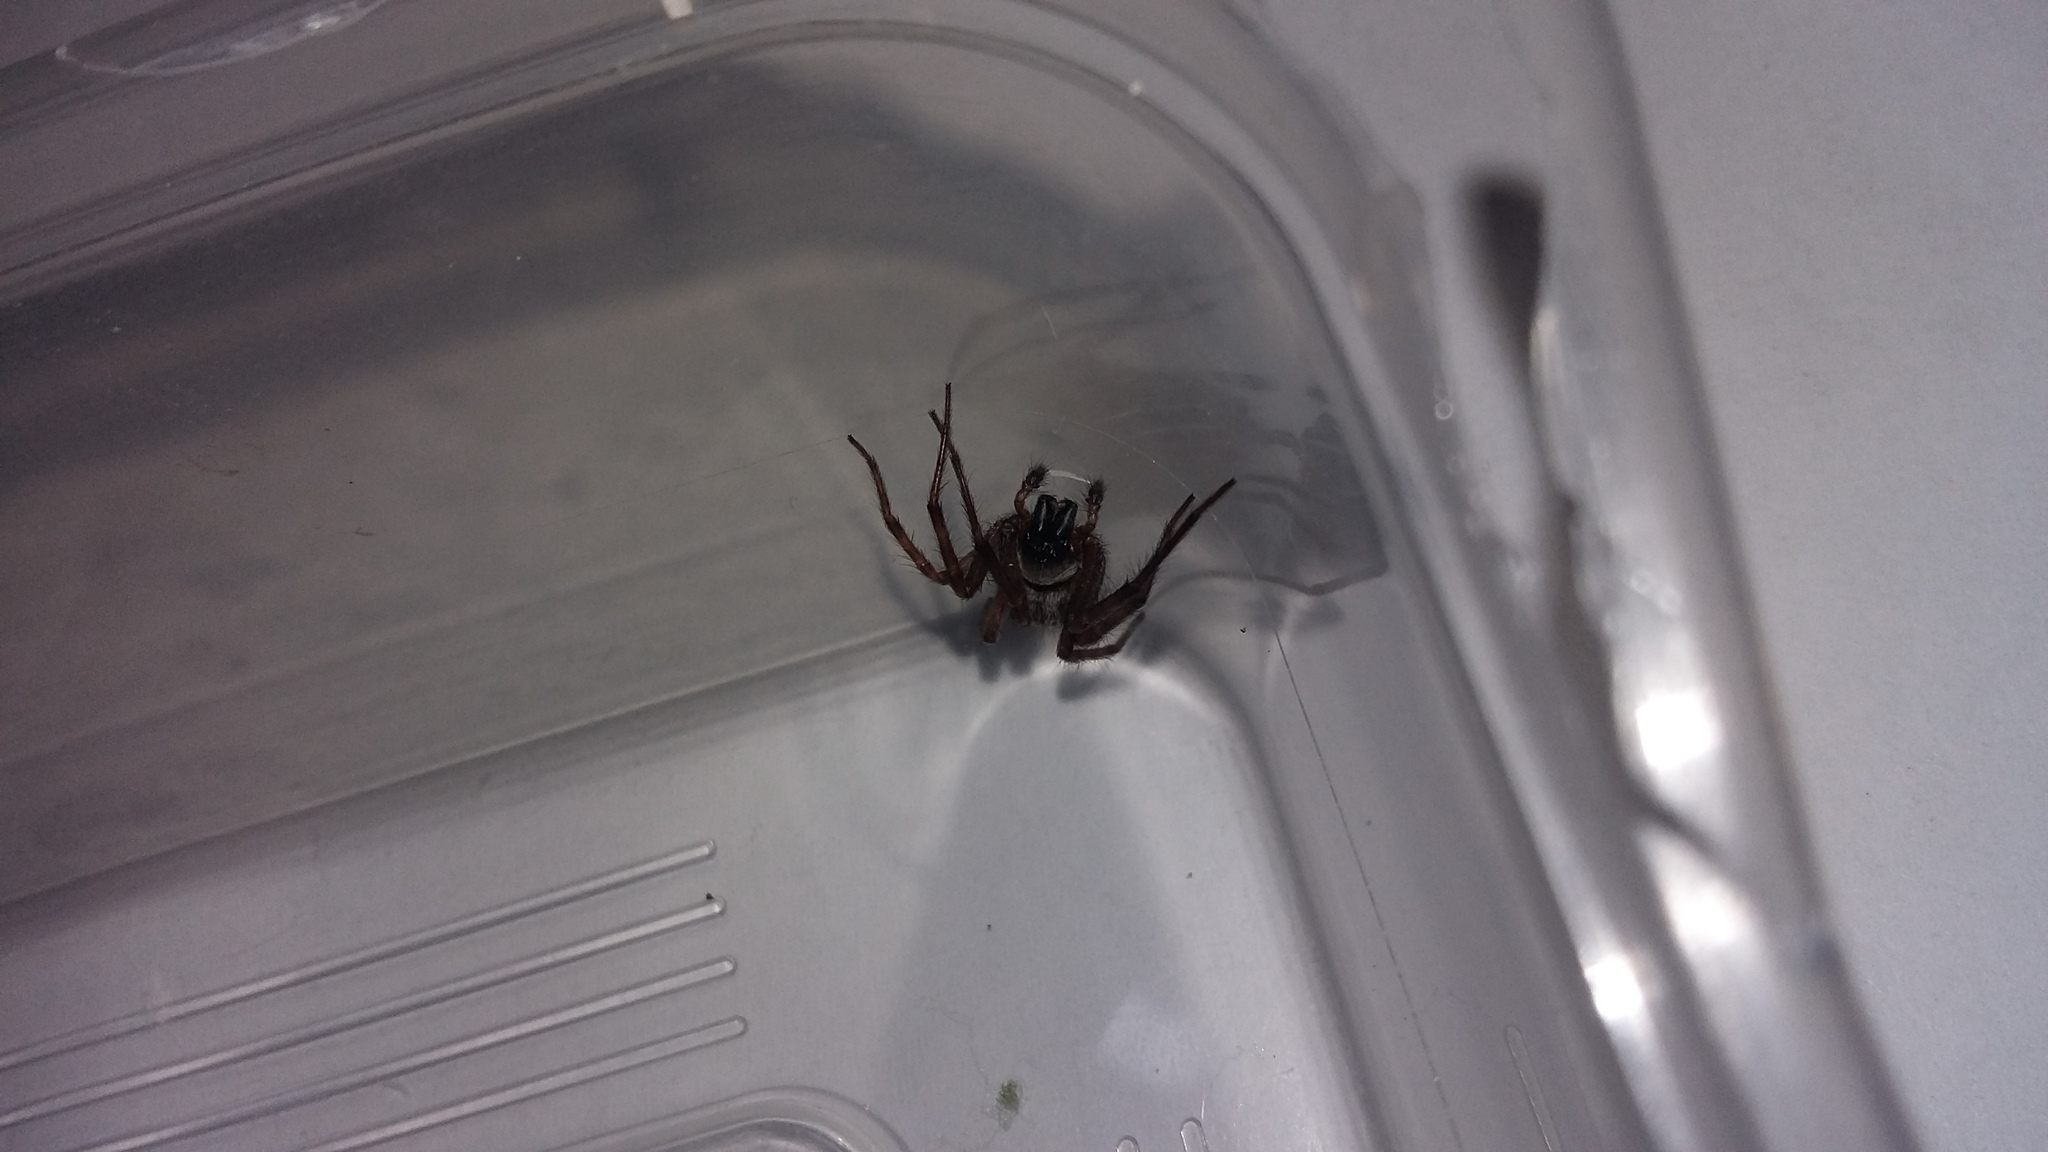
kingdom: Animalia
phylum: Arthropoda
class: Arachnida
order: Araneae
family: Desidae
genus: Badumna
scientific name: Badumna
